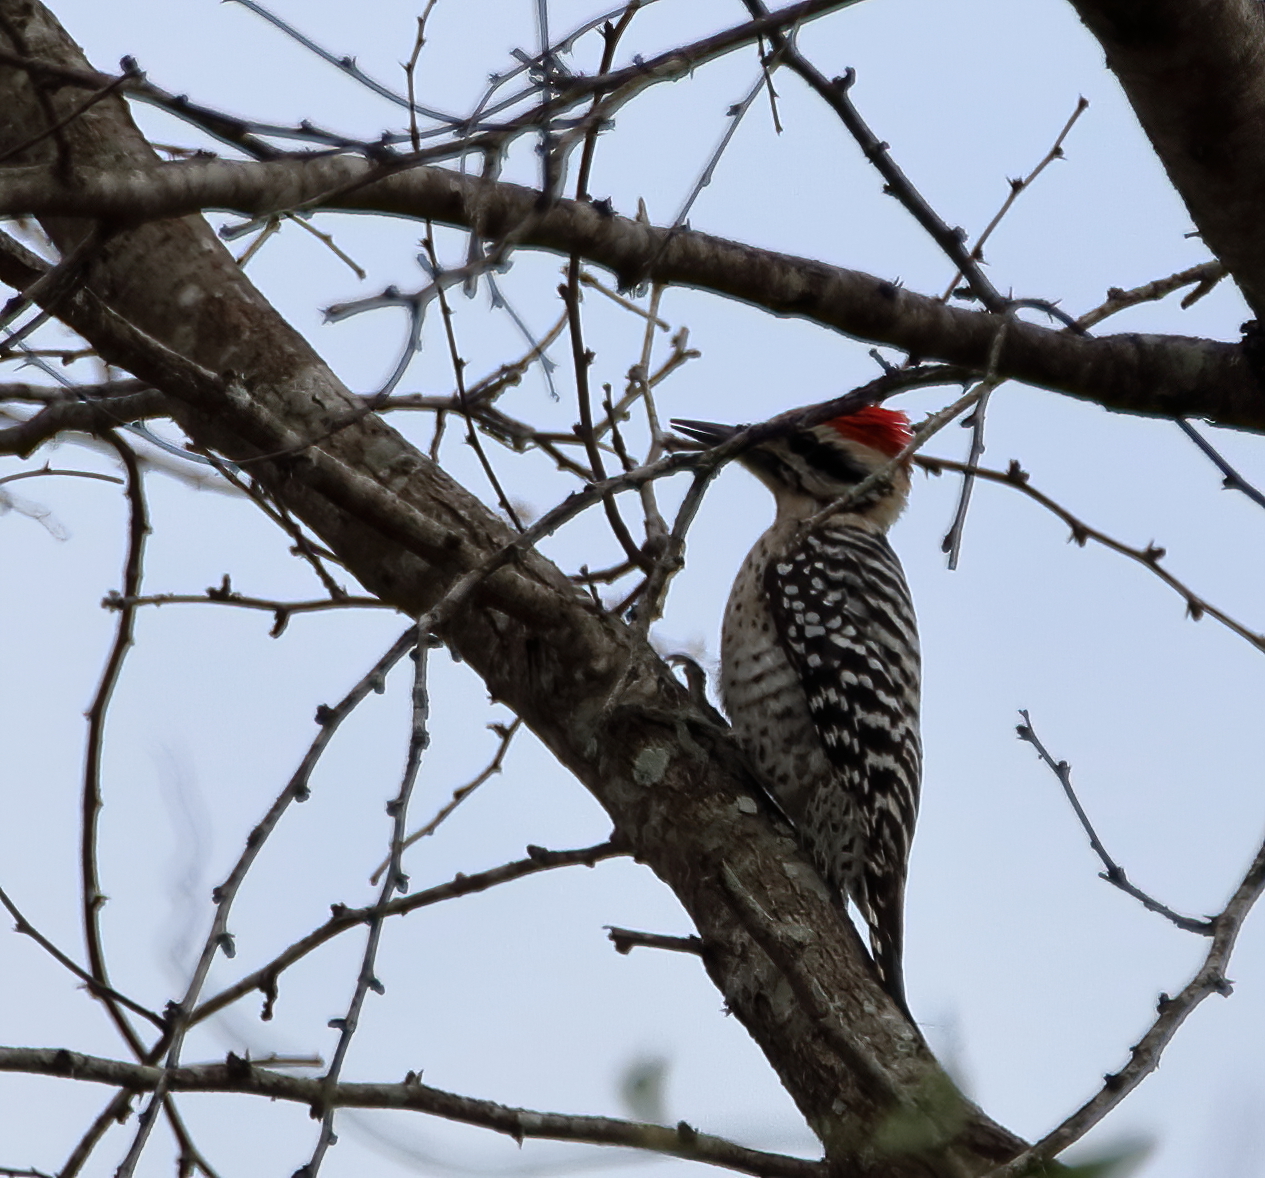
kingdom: Animalia
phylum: Chordata
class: Aves
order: Piciformes
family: Picidae
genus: Dryobates
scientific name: Dryobates scalaris
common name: Ladder-backed woodpecker
